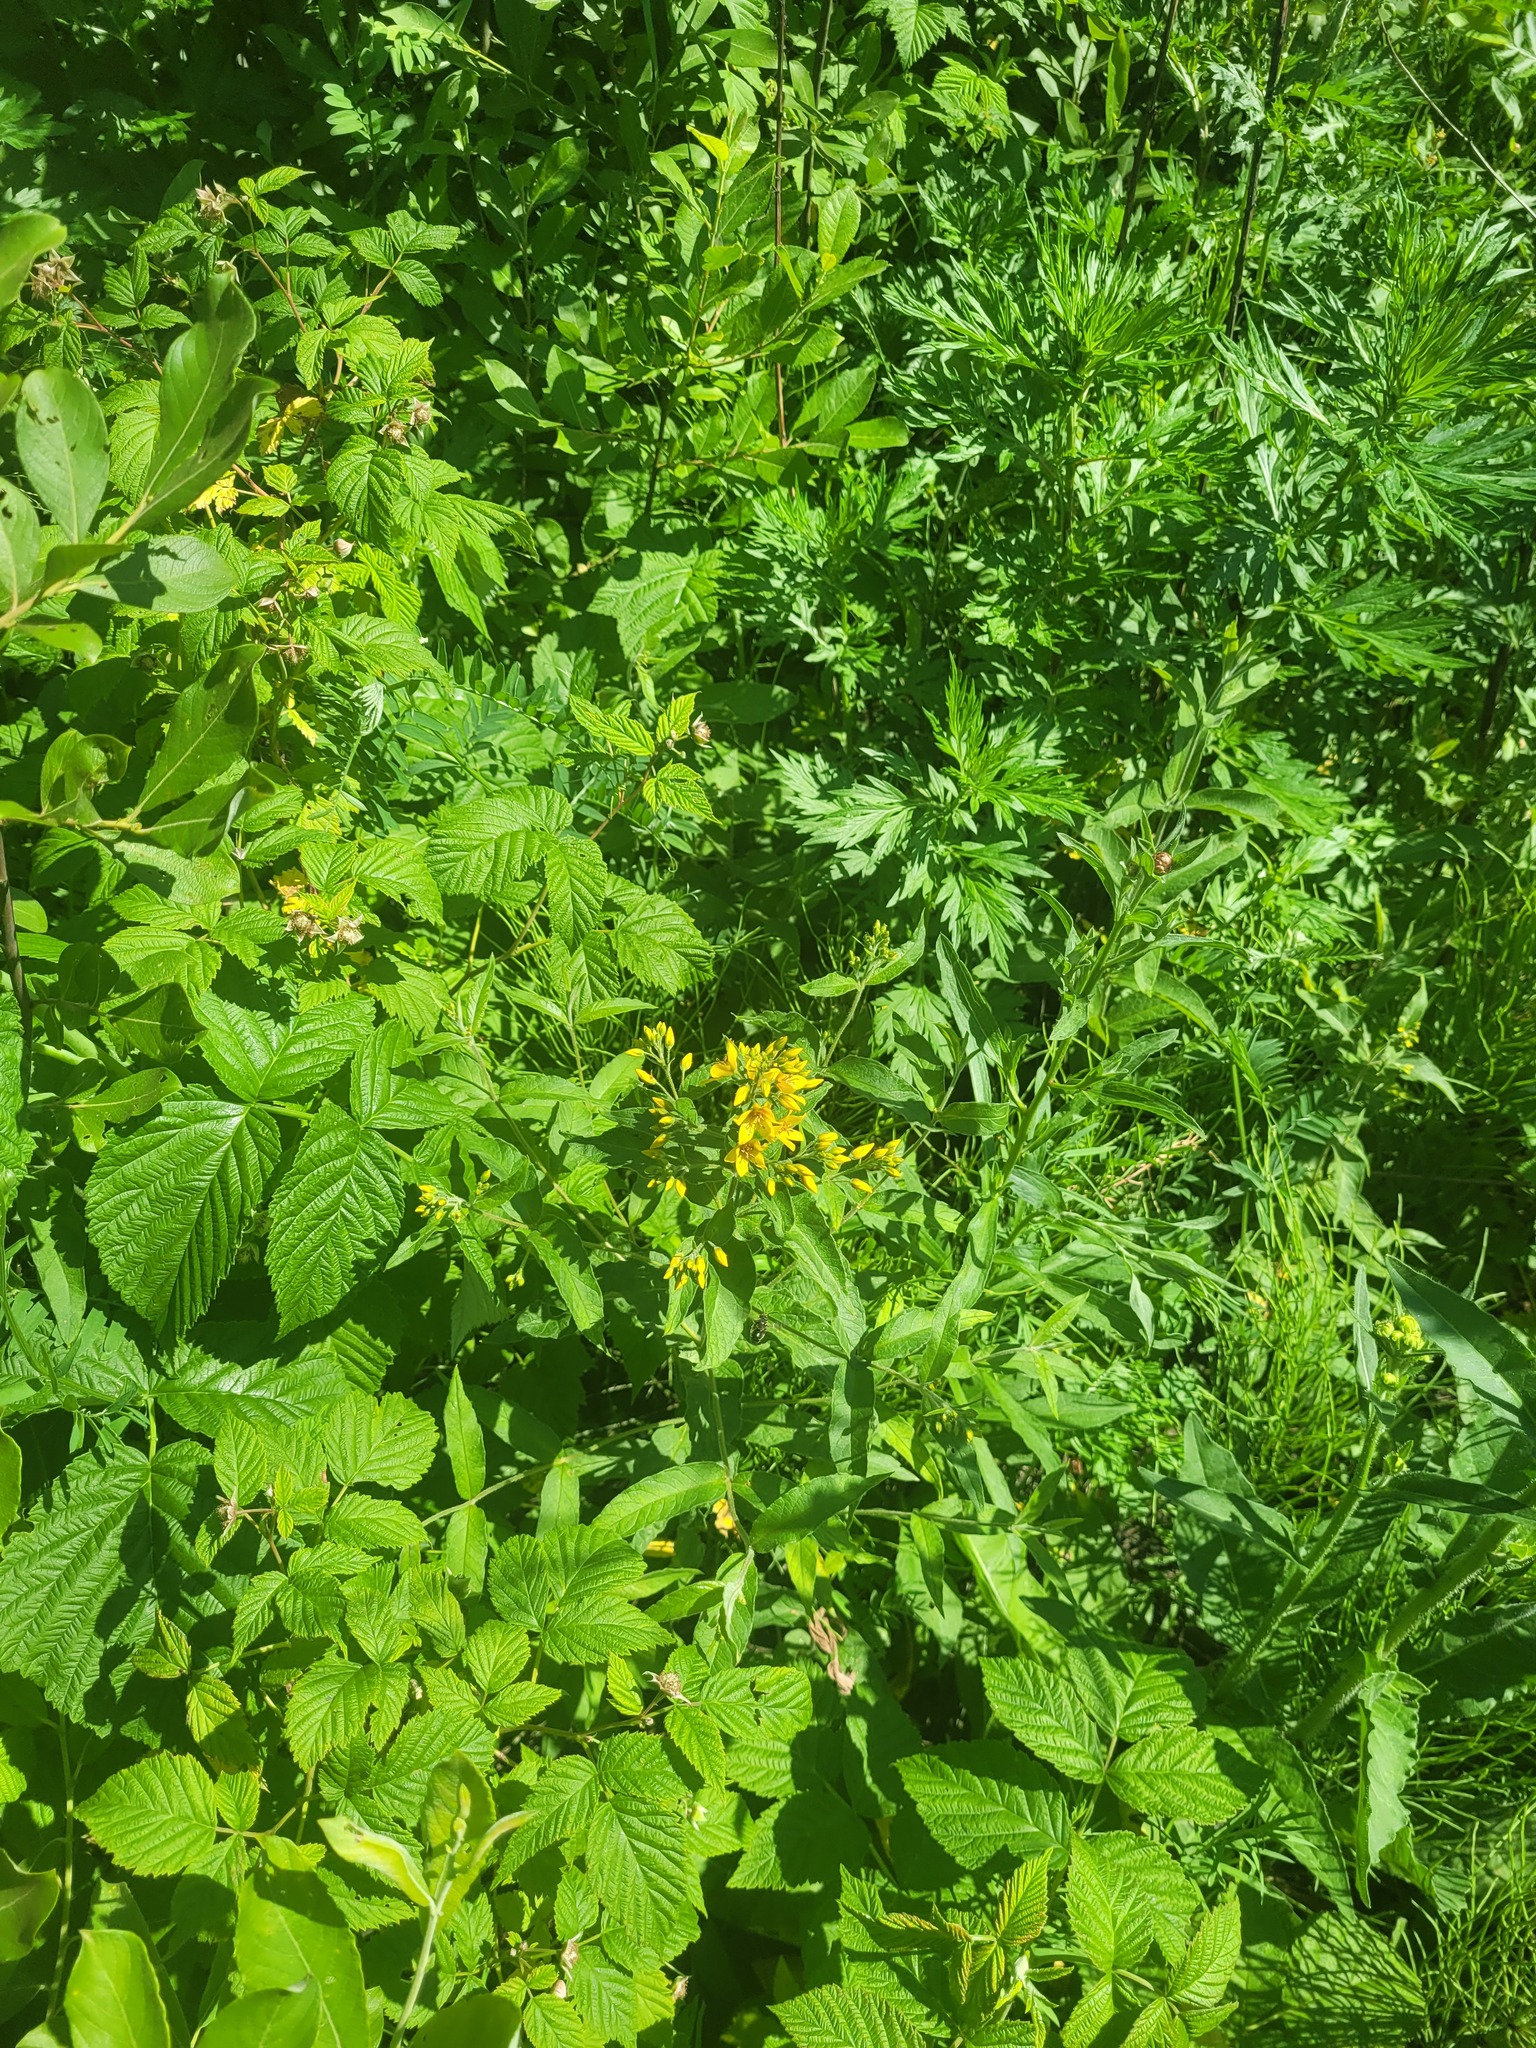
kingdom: Plantae
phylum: Tracheophyta
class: Magnoliopsida
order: Ericales
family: Primulaceae
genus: Lysimachia
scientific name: Lysimachia vulgaris
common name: Yellow loosestrife
